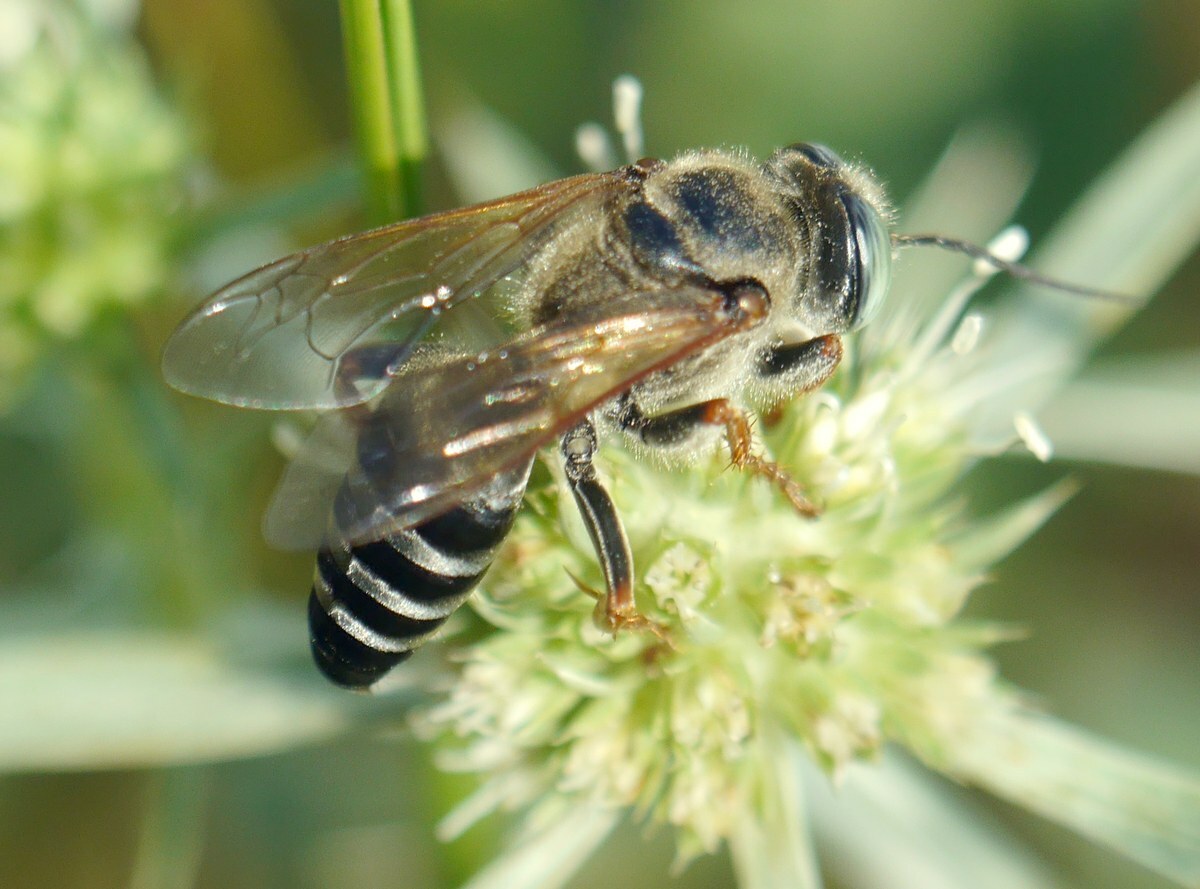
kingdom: Animalia
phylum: Arthropoda
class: Insecta
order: Hymenoptera
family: Crabronidae
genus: Tachytes
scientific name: Tachytes etruscus
